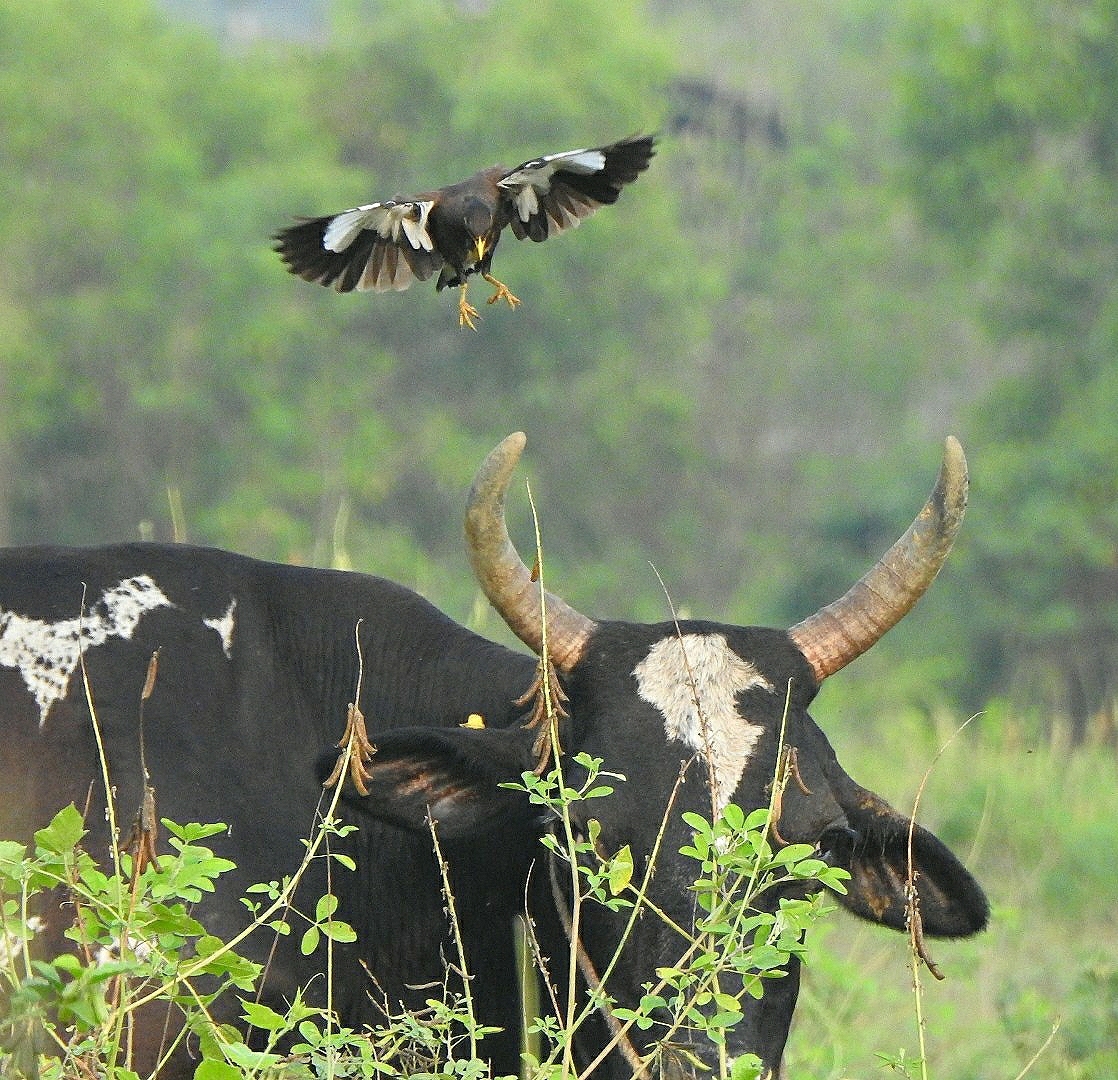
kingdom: Animalia
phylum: Chordata
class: Aves
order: Passeriformes
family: Sturnidae
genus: Acridotheres
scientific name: Acridotheres tristis
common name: Common myna
